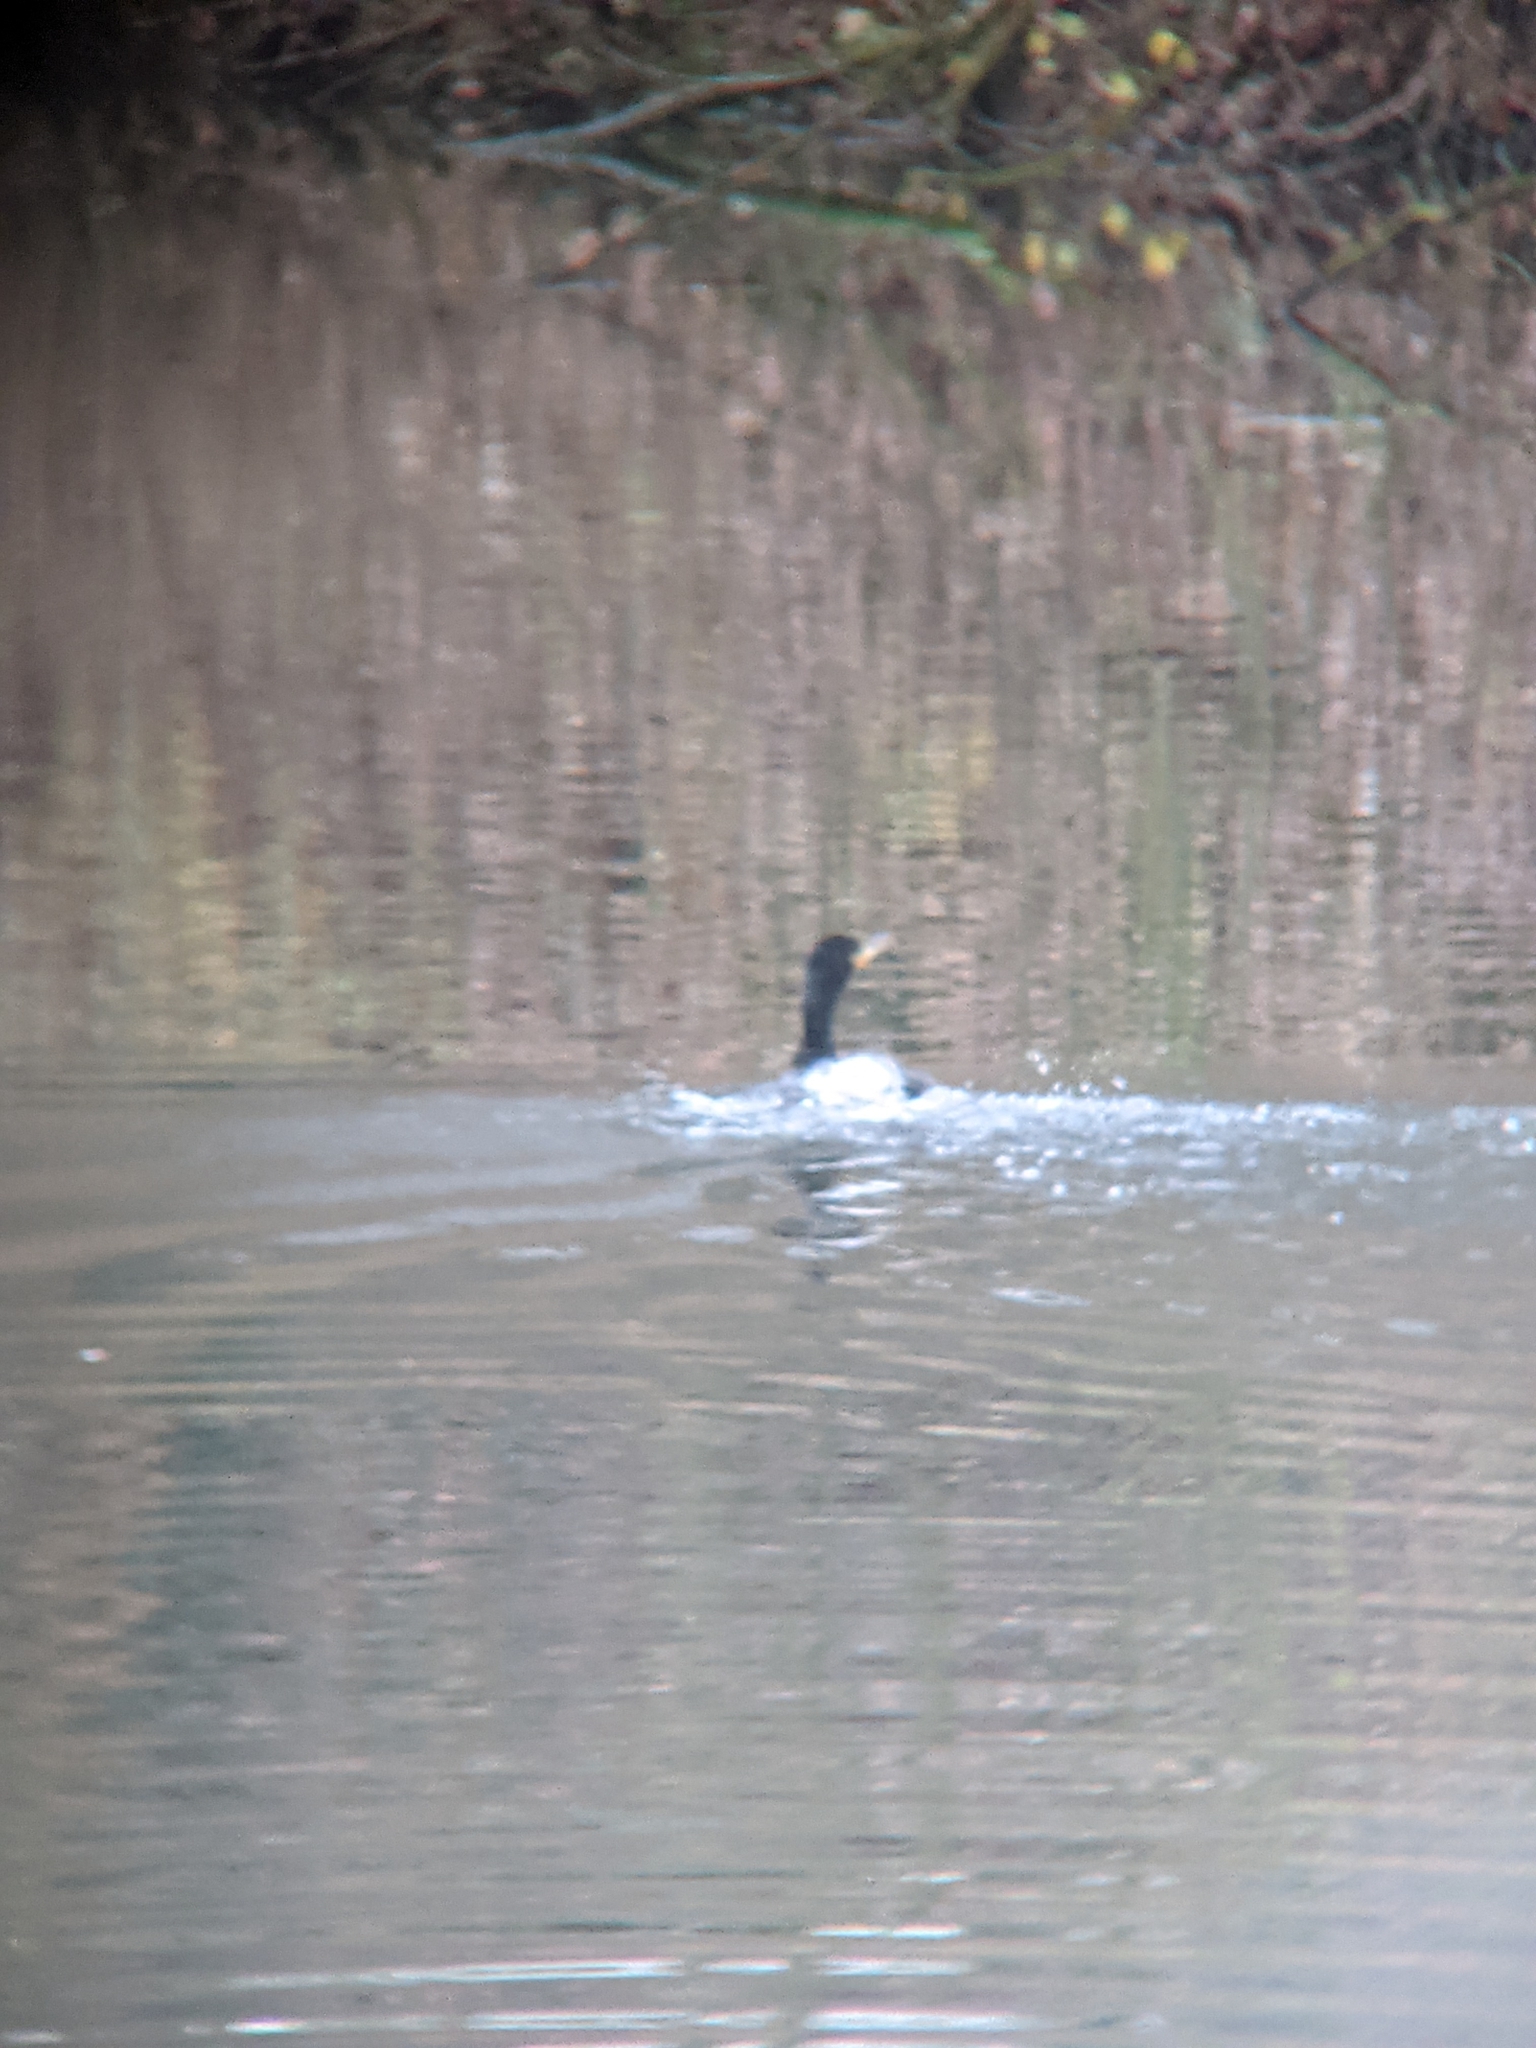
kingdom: Animalia
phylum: Chordata
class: Aves
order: Suliformes
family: Phalacrocoracidae
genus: Phalacrocorax
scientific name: Phalacrocorax carbo
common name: Great cormorant
